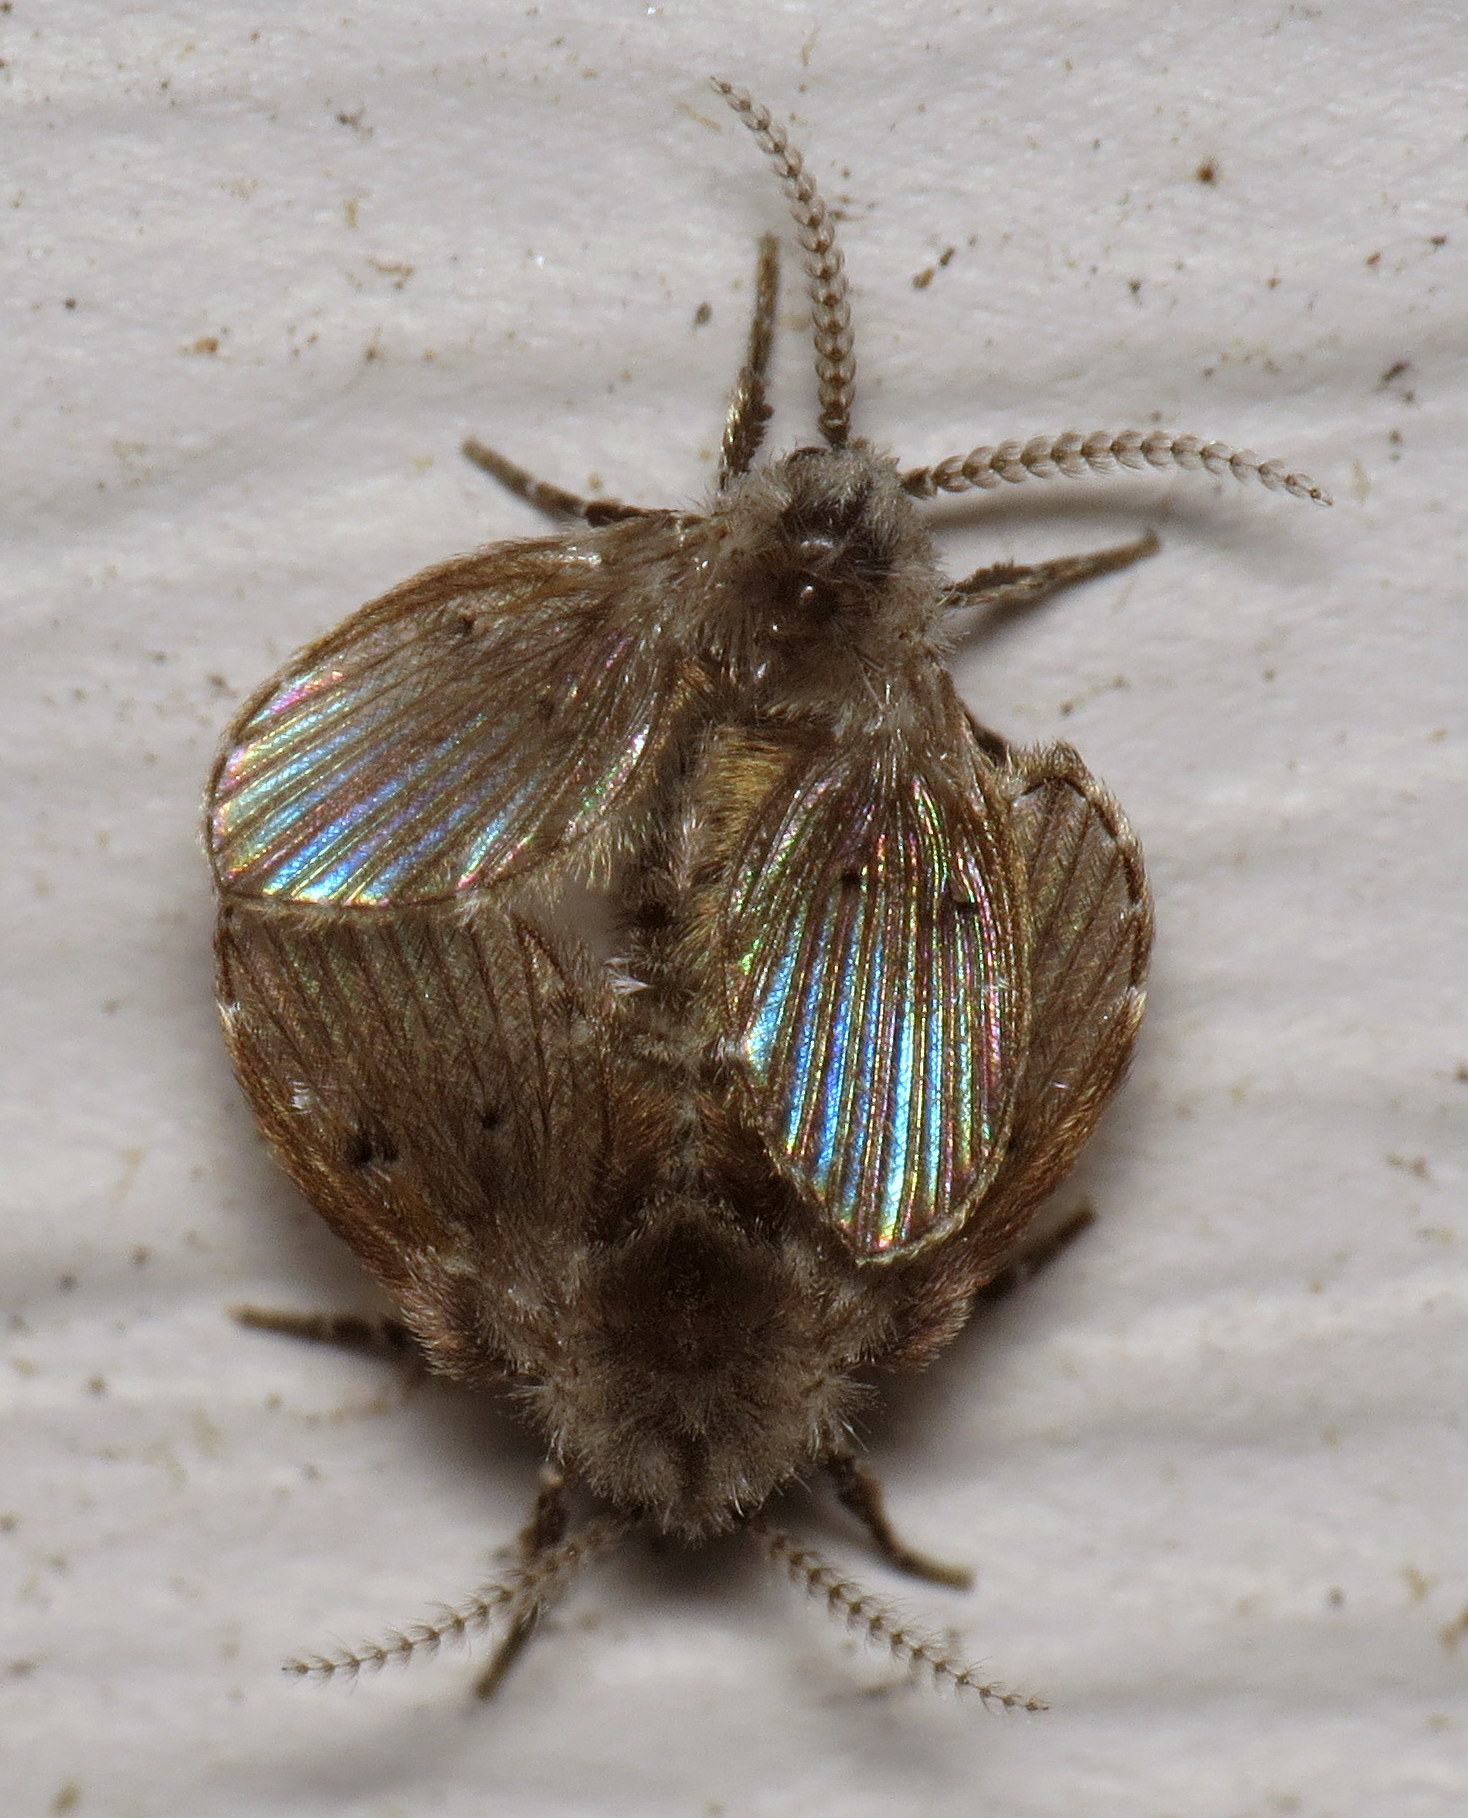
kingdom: Animalia
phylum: Arthropoda
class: Insecta
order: Diptera
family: Psychodidae
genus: Clogmia
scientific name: Clogmia albipunctatus
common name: White-spotted moth fly
